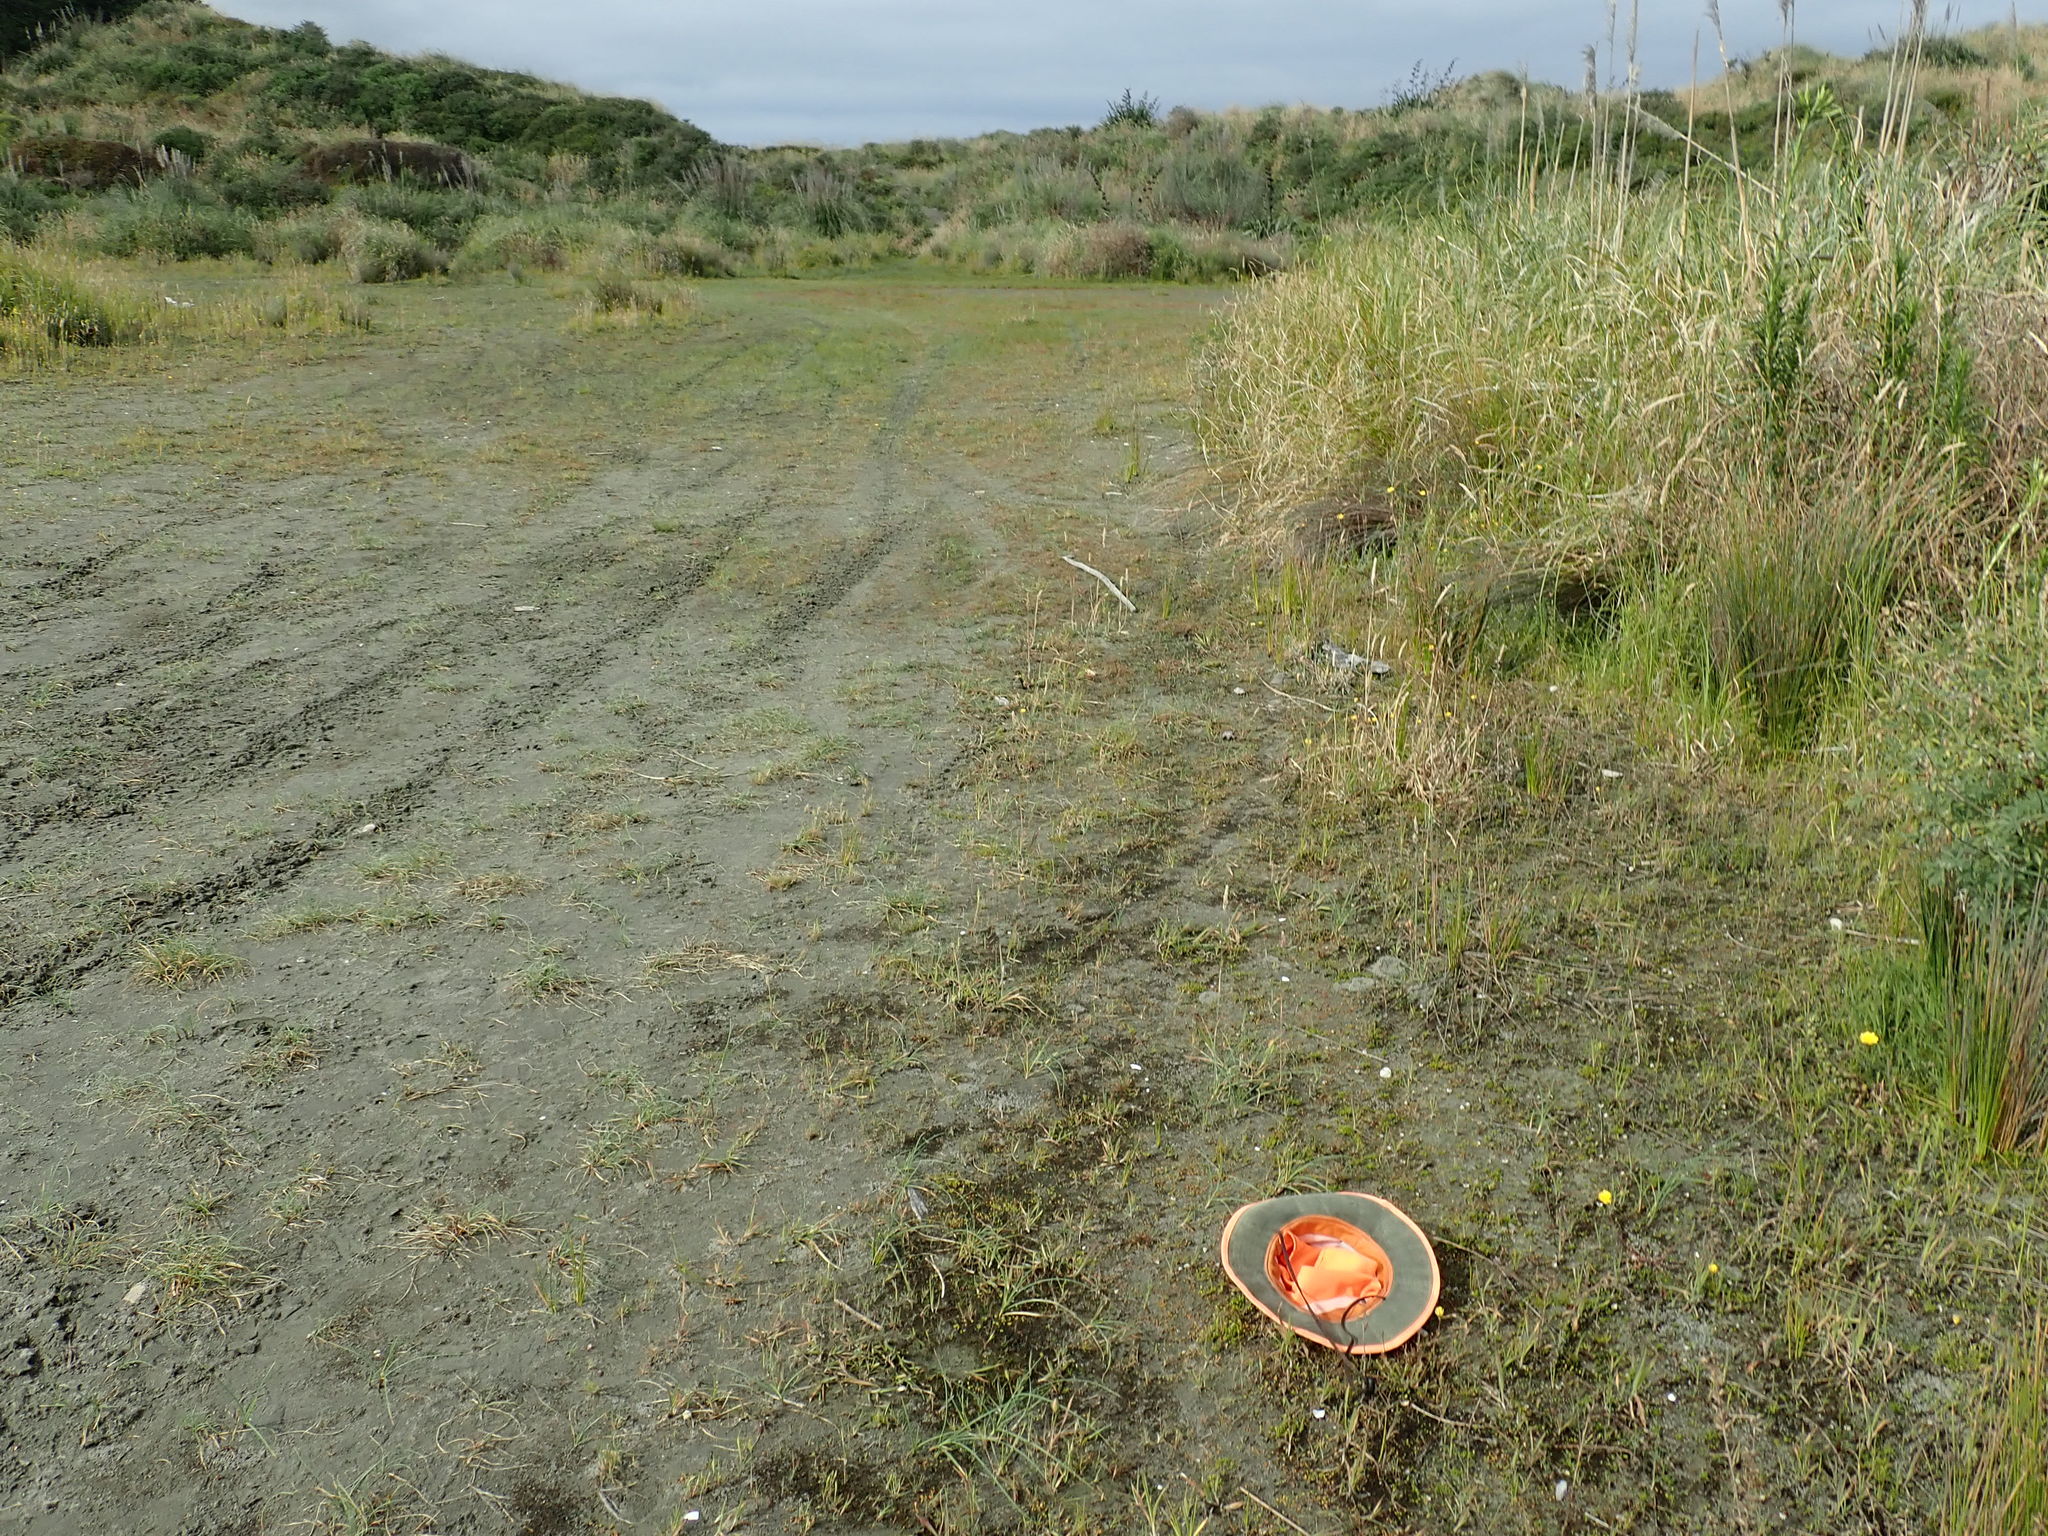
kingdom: Plantae
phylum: Tracheophyta
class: Magnoliopsida
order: Caryophyllales
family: Caryophyllaceae
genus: Sagina
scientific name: Sagina procumbens
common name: Procumbent pearlwort
